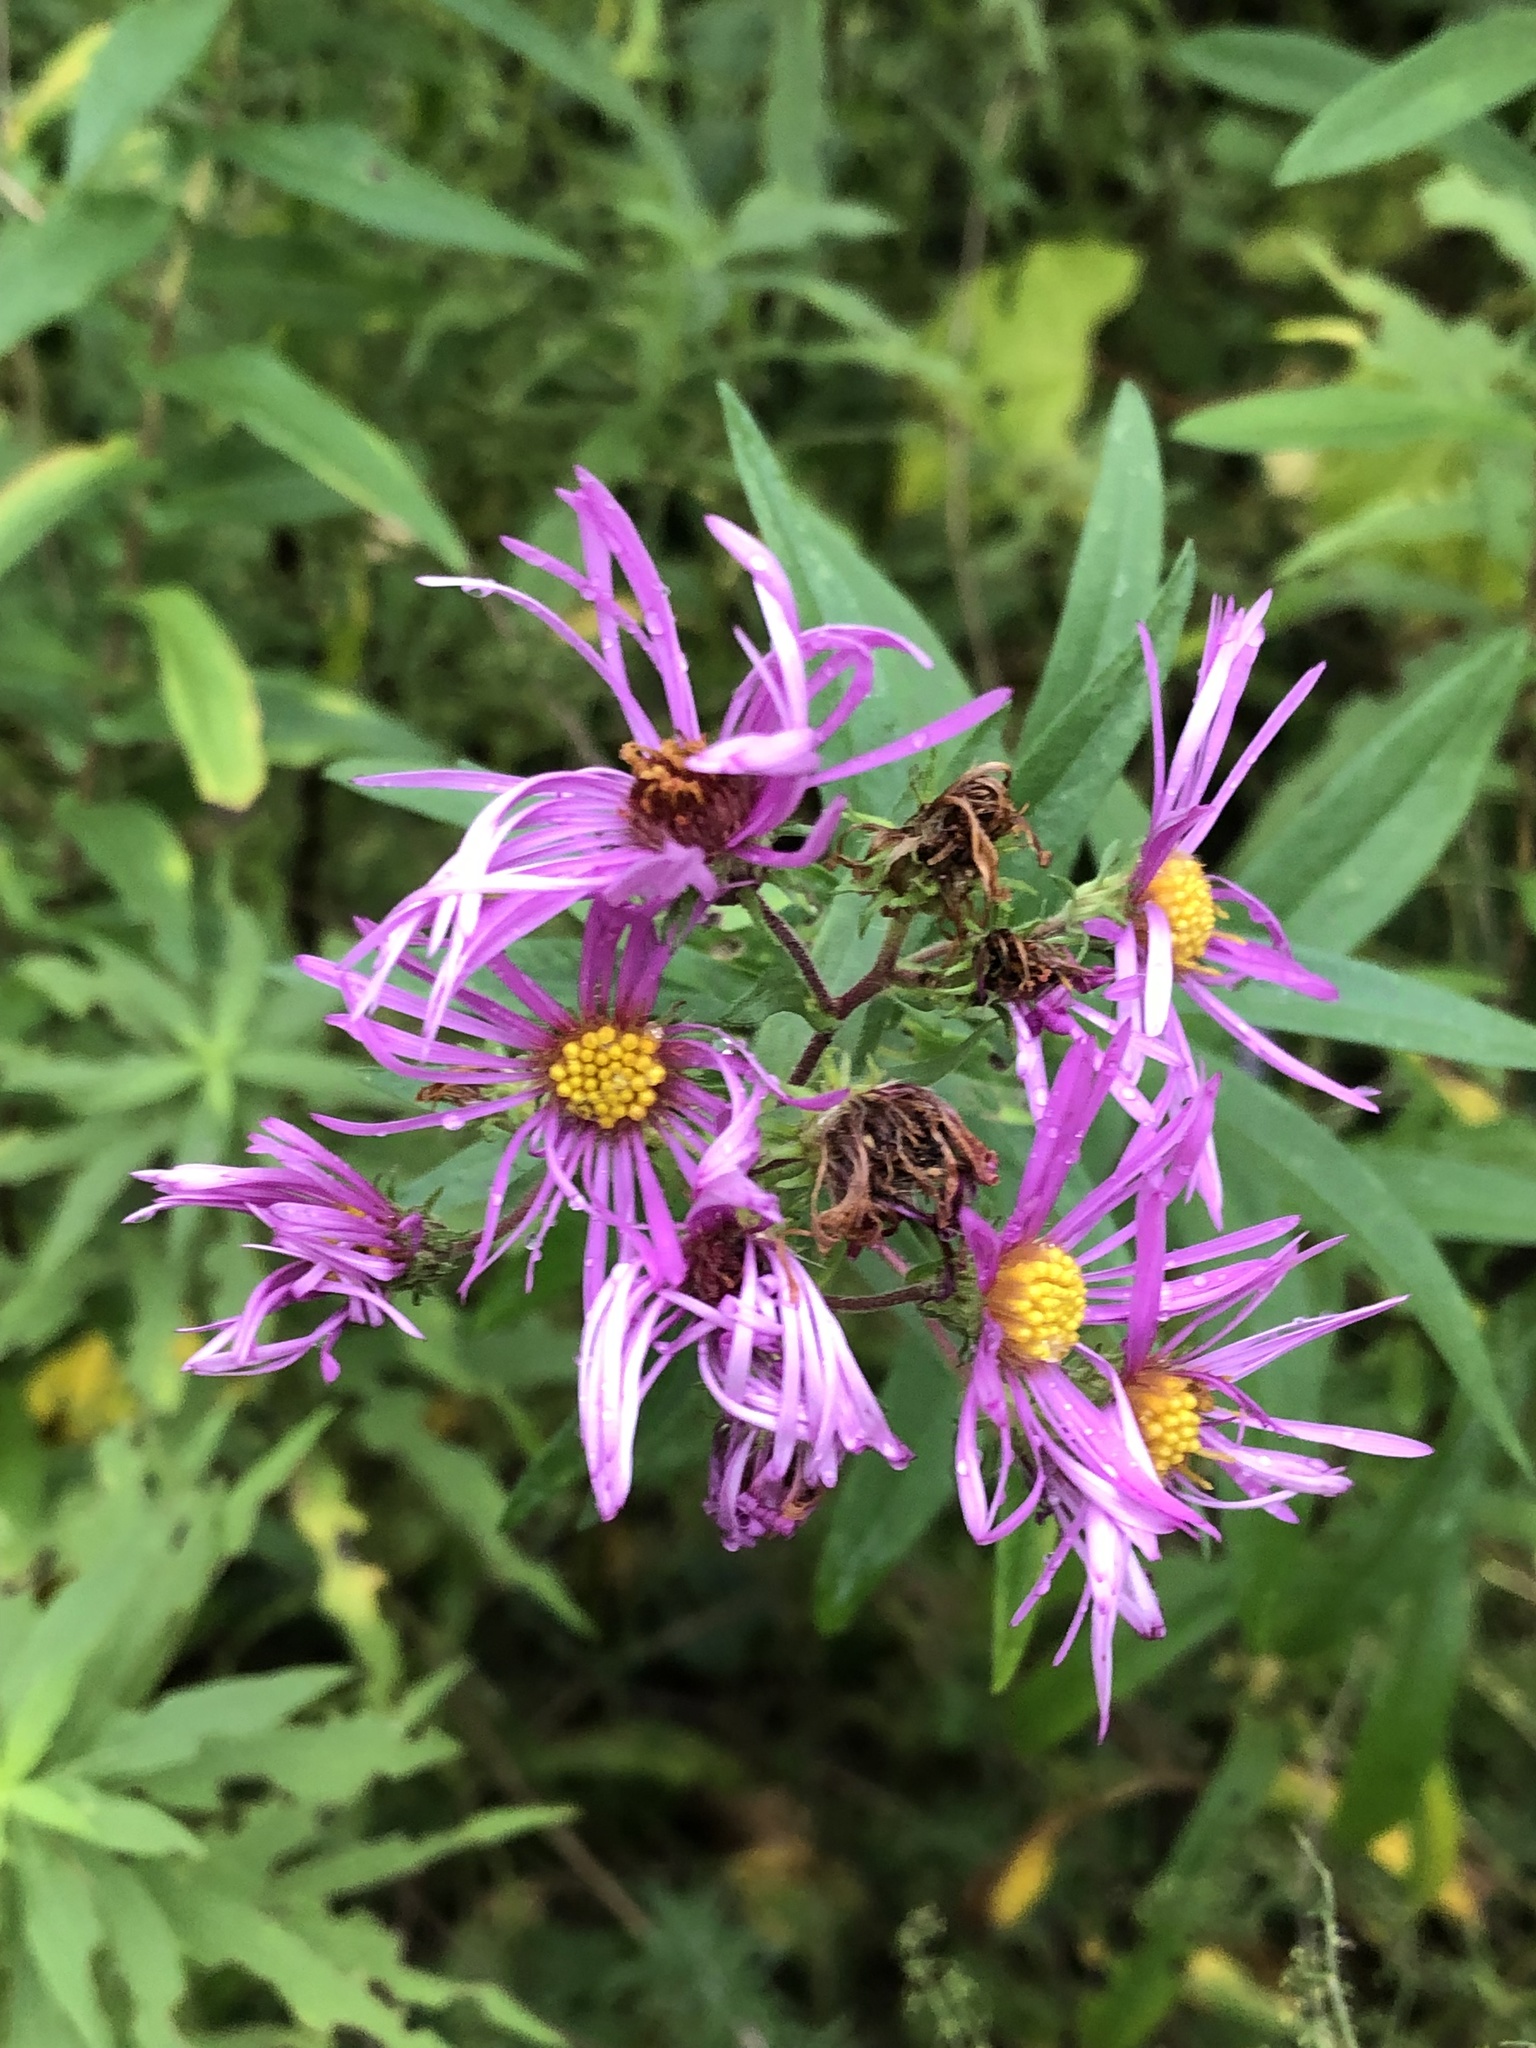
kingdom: Plantae
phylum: Tracheophyta
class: Magnoliopsida
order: Asterales
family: Asteraceae
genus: Symphyotrichum
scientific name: Symphyotrichum novae-angliae
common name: Michaelmas daisy
